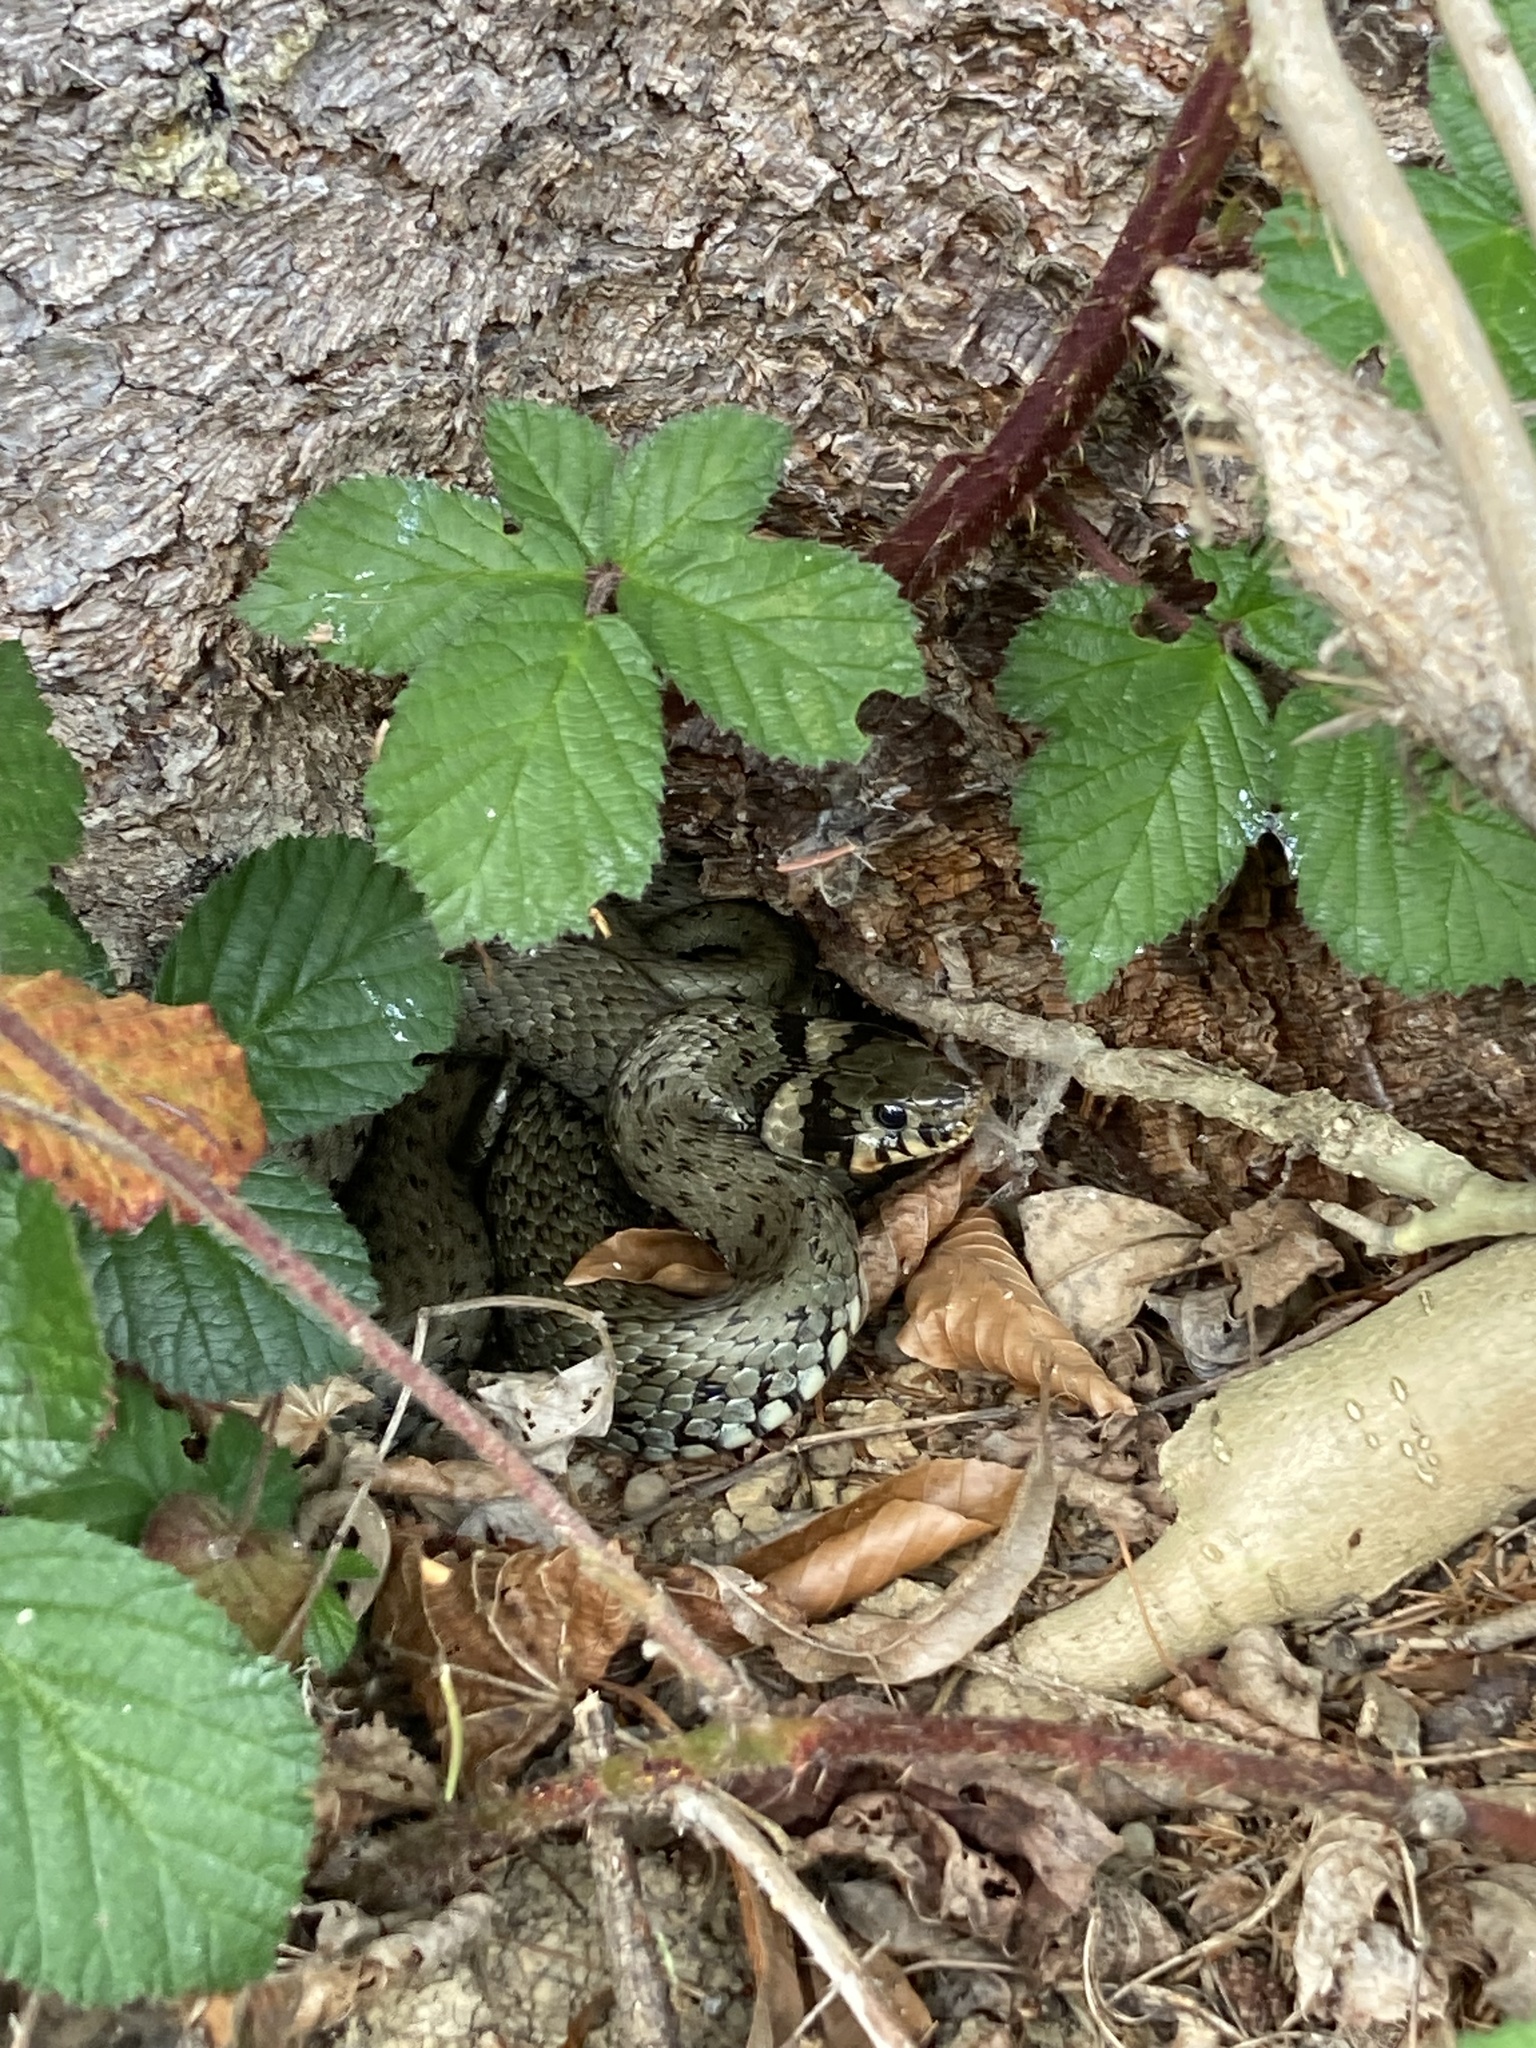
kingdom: Animalia
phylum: Chordata
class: Squamata
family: Colubridae
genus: Natrix
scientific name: Natrix natrix
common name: Grass snake
